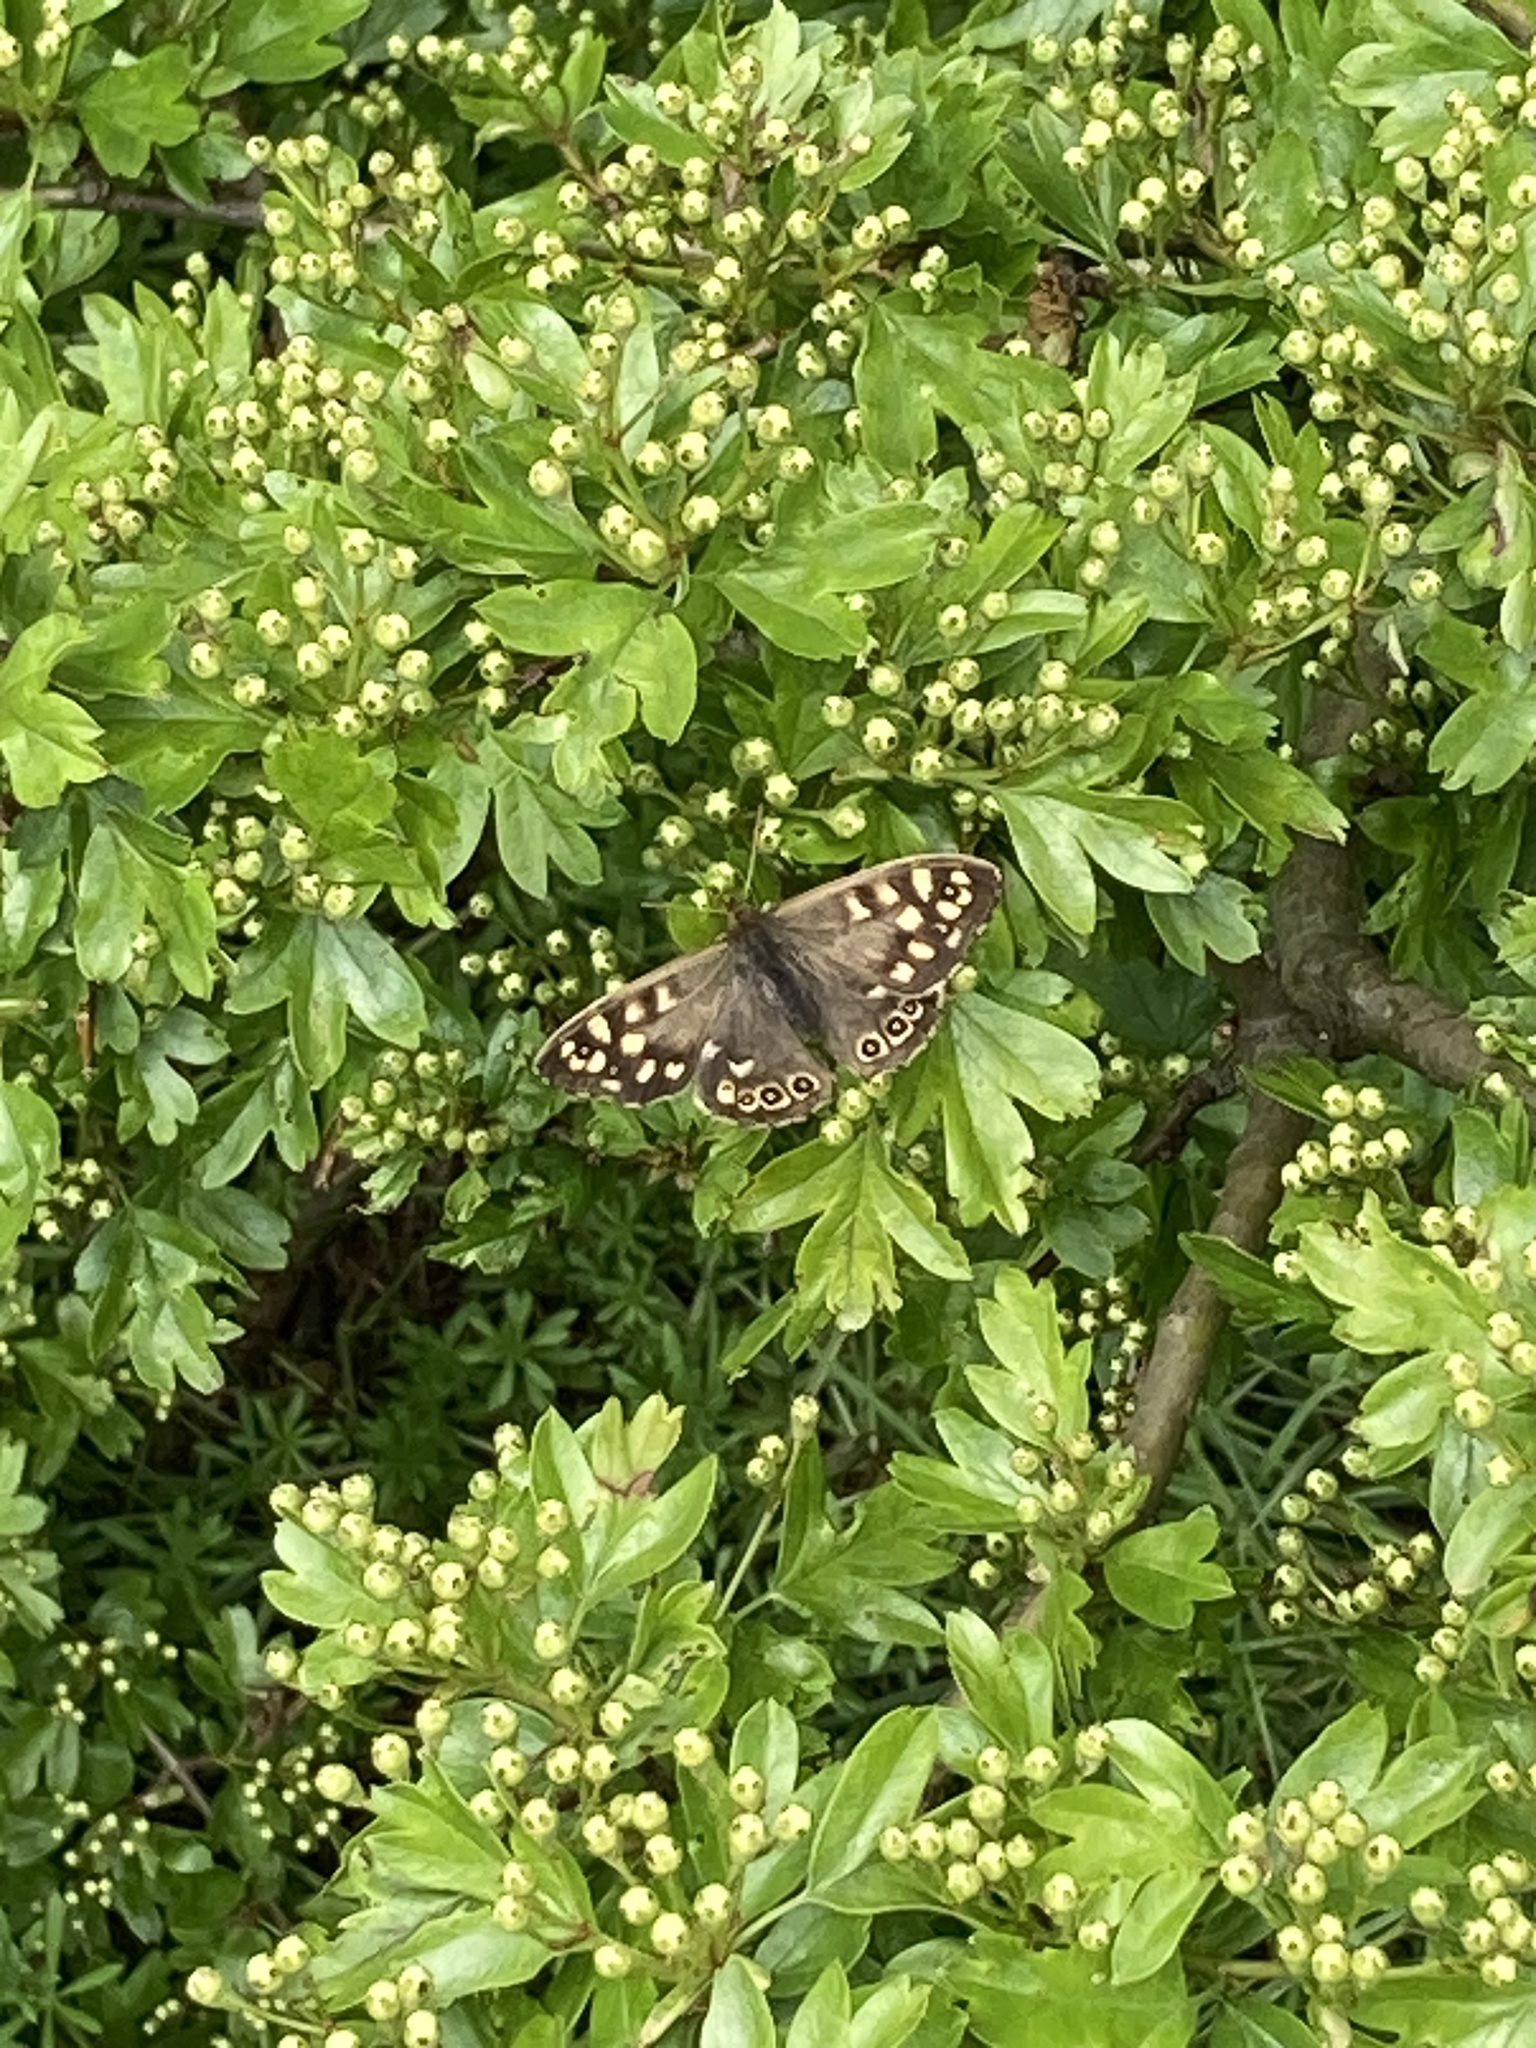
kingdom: Animalia
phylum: Arthropoda
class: Insecta
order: Lepidoptera
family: Nymphalidae
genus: Pararge
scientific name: Pararge aegeria
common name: Speckled wood
